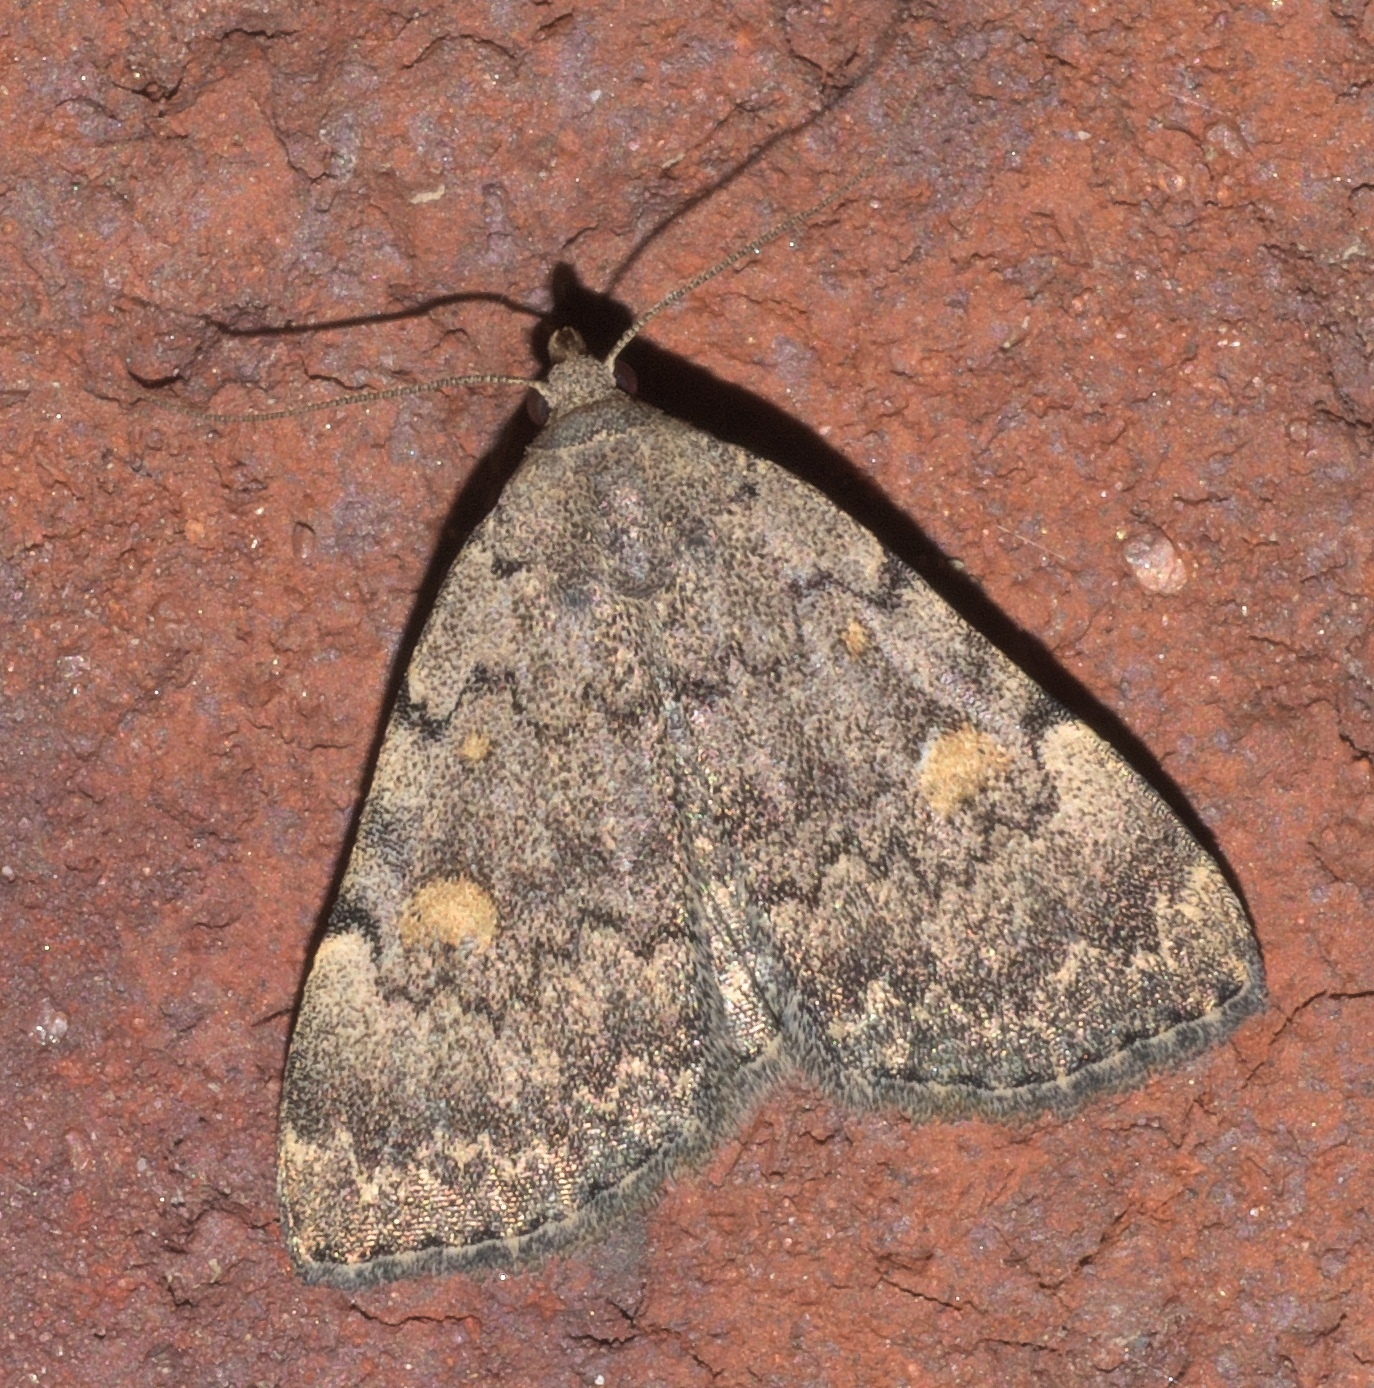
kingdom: Animalia
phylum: Arthropoda
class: Insecta
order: Lepidoptera
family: Erebidae
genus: Idia
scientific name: Idia aemula
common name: Common idia moth
